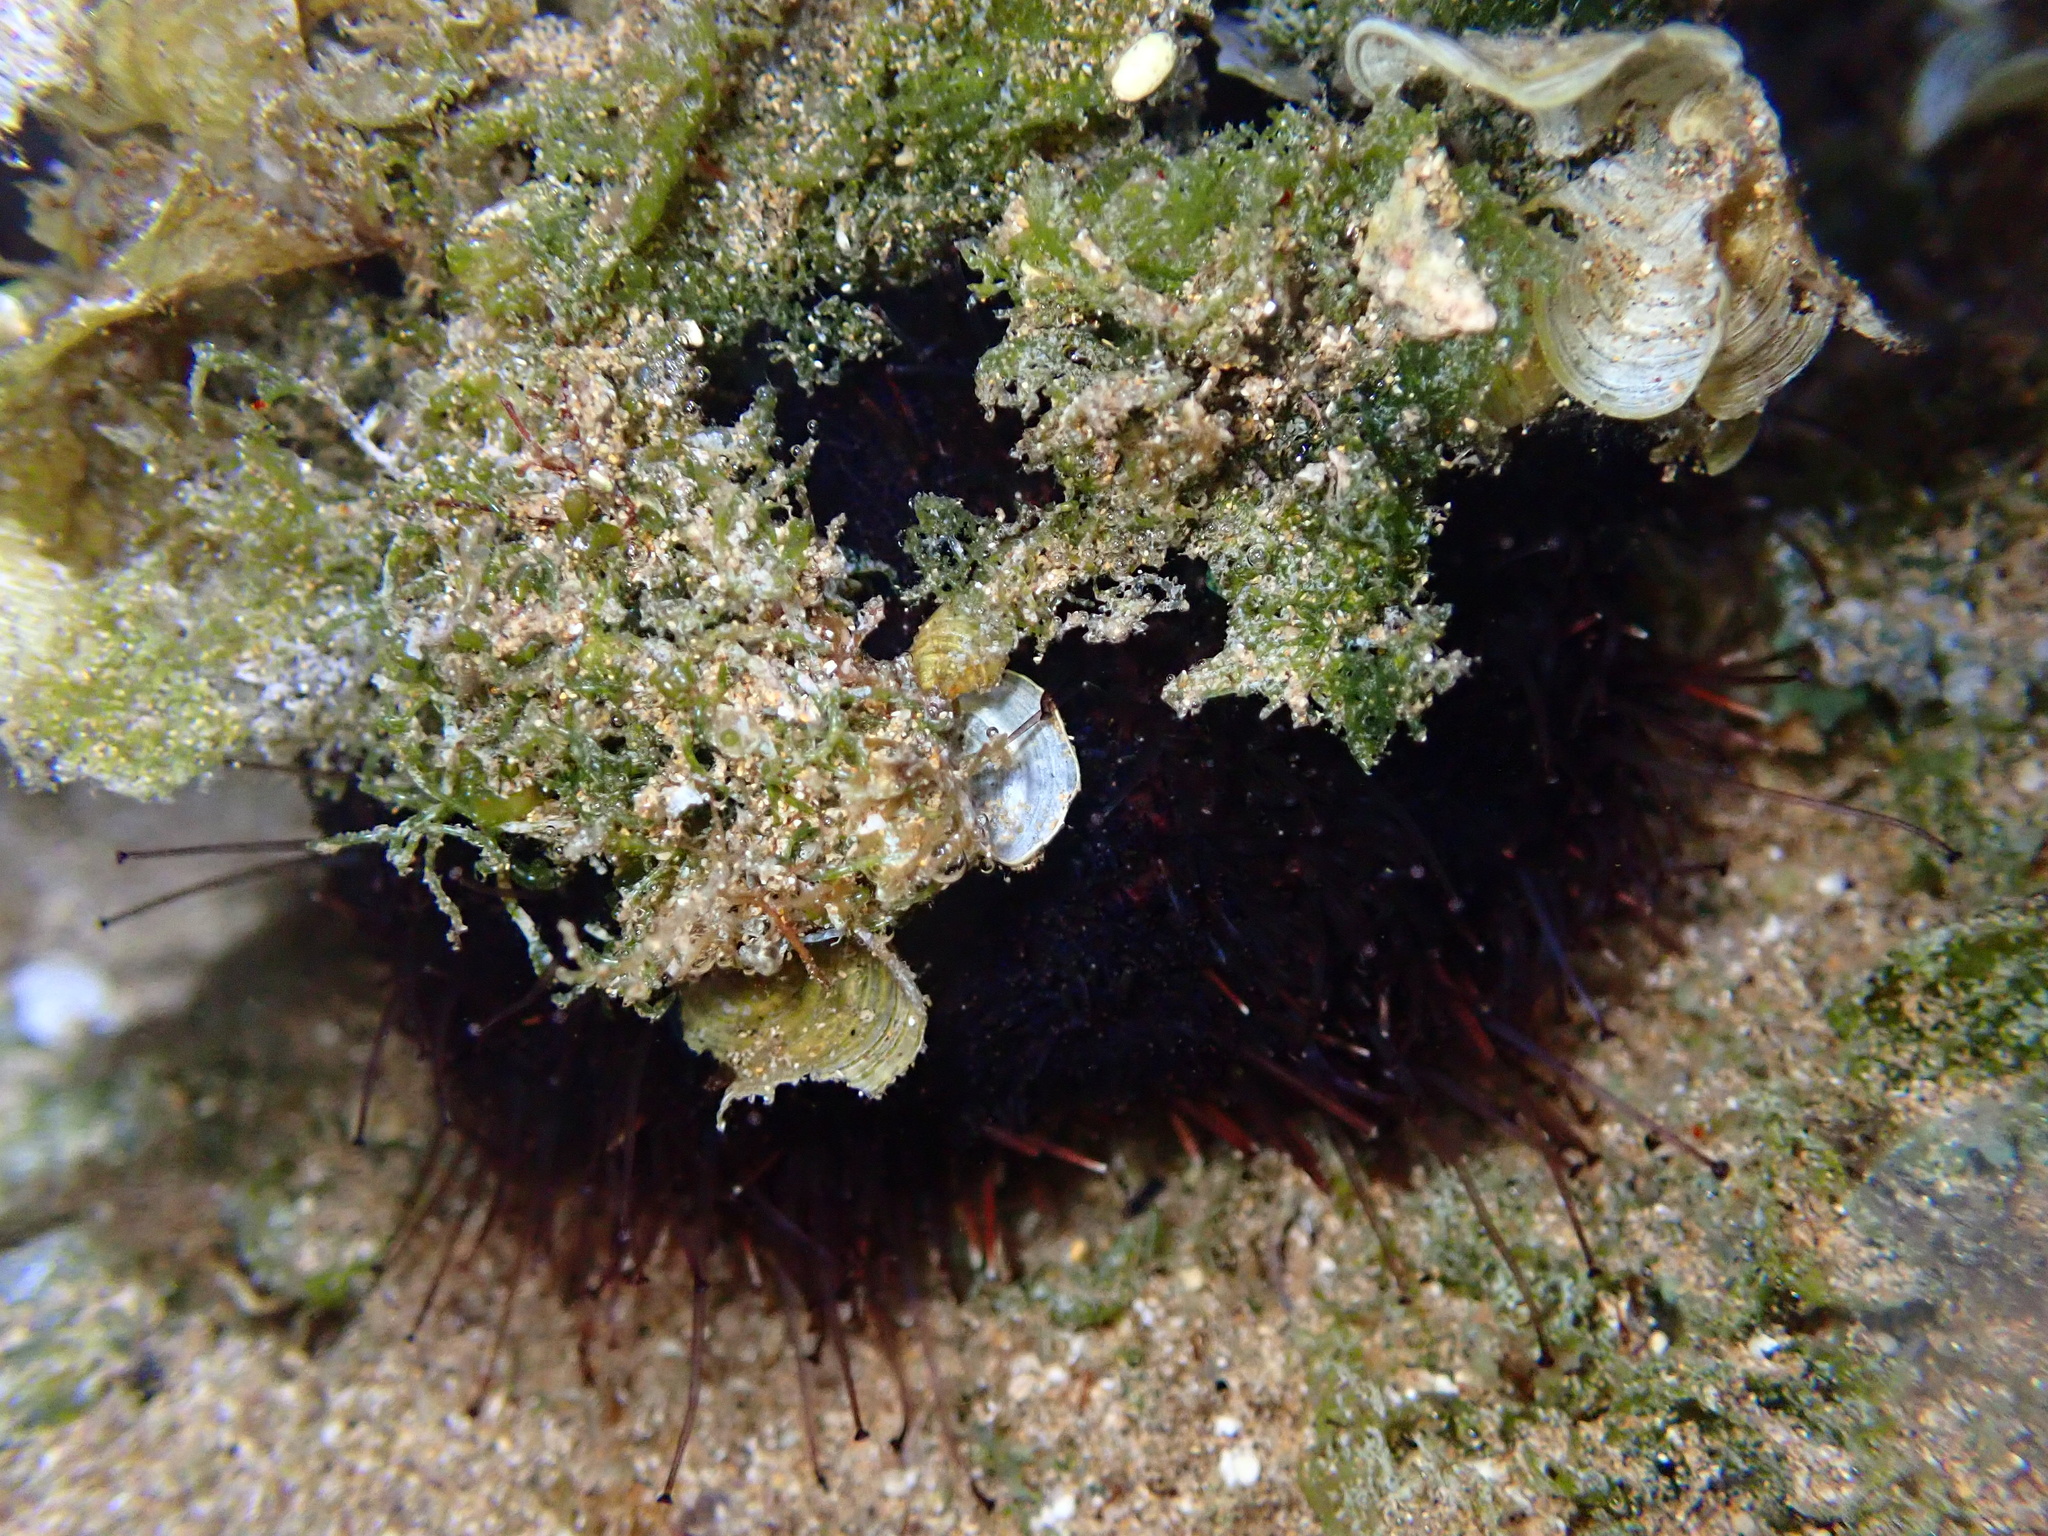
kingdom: Animalia
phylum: Echinodermata
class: Echinoidea
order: Camarodonta
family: Toxopneustidae
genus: Tripneustes
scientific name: Tripneustes gratilla
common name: Bischofsmützenseeigel
